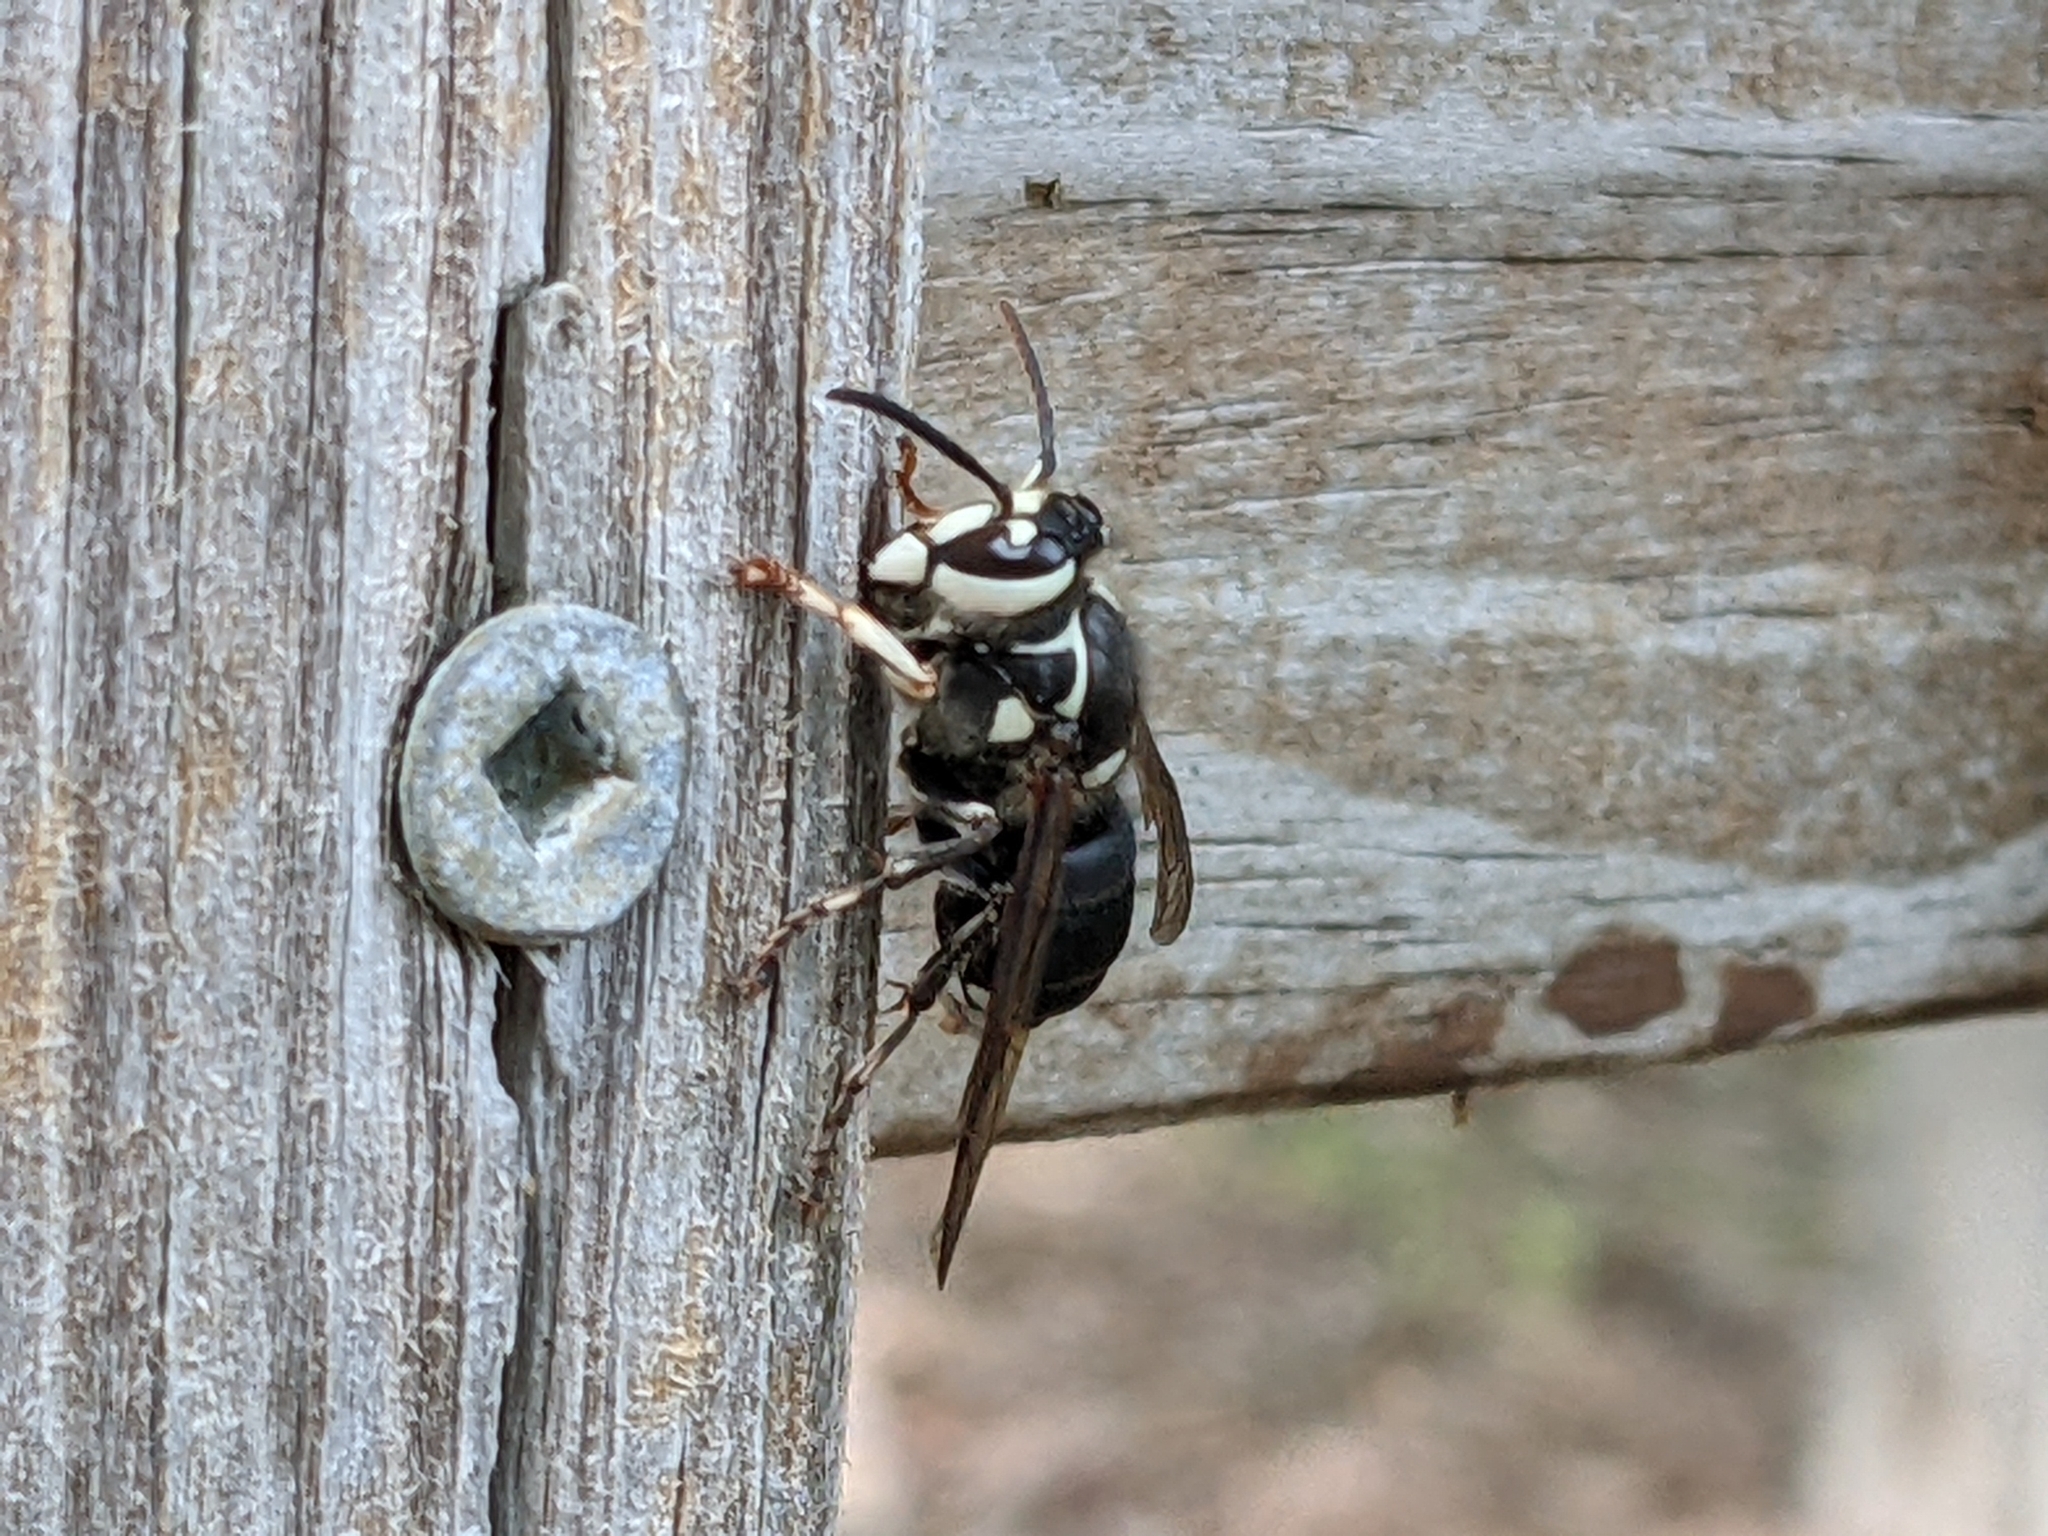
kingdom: Animalia
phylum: Arthropoda
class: Insecta
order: Hymenoptera
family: Vespidae
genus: Dolichovespula
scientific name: Dolichovespula maculata
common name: Bald-faced hornet
